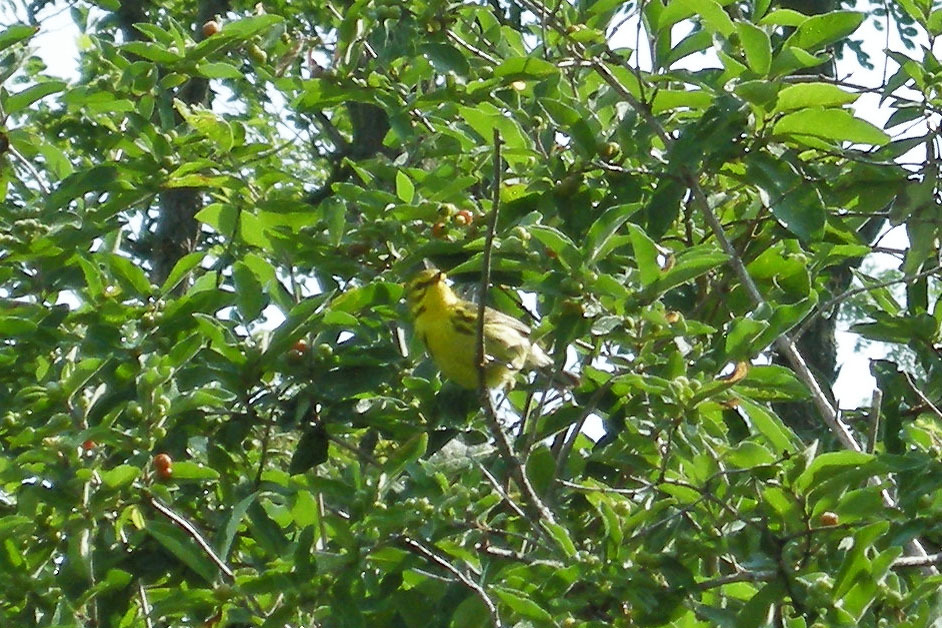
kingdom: Animalia
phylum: Chordata
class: Aves
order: Passeriformes
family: Parulidae
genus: Setophaga
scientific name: Setophaga discolor
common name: Prairie warbler
